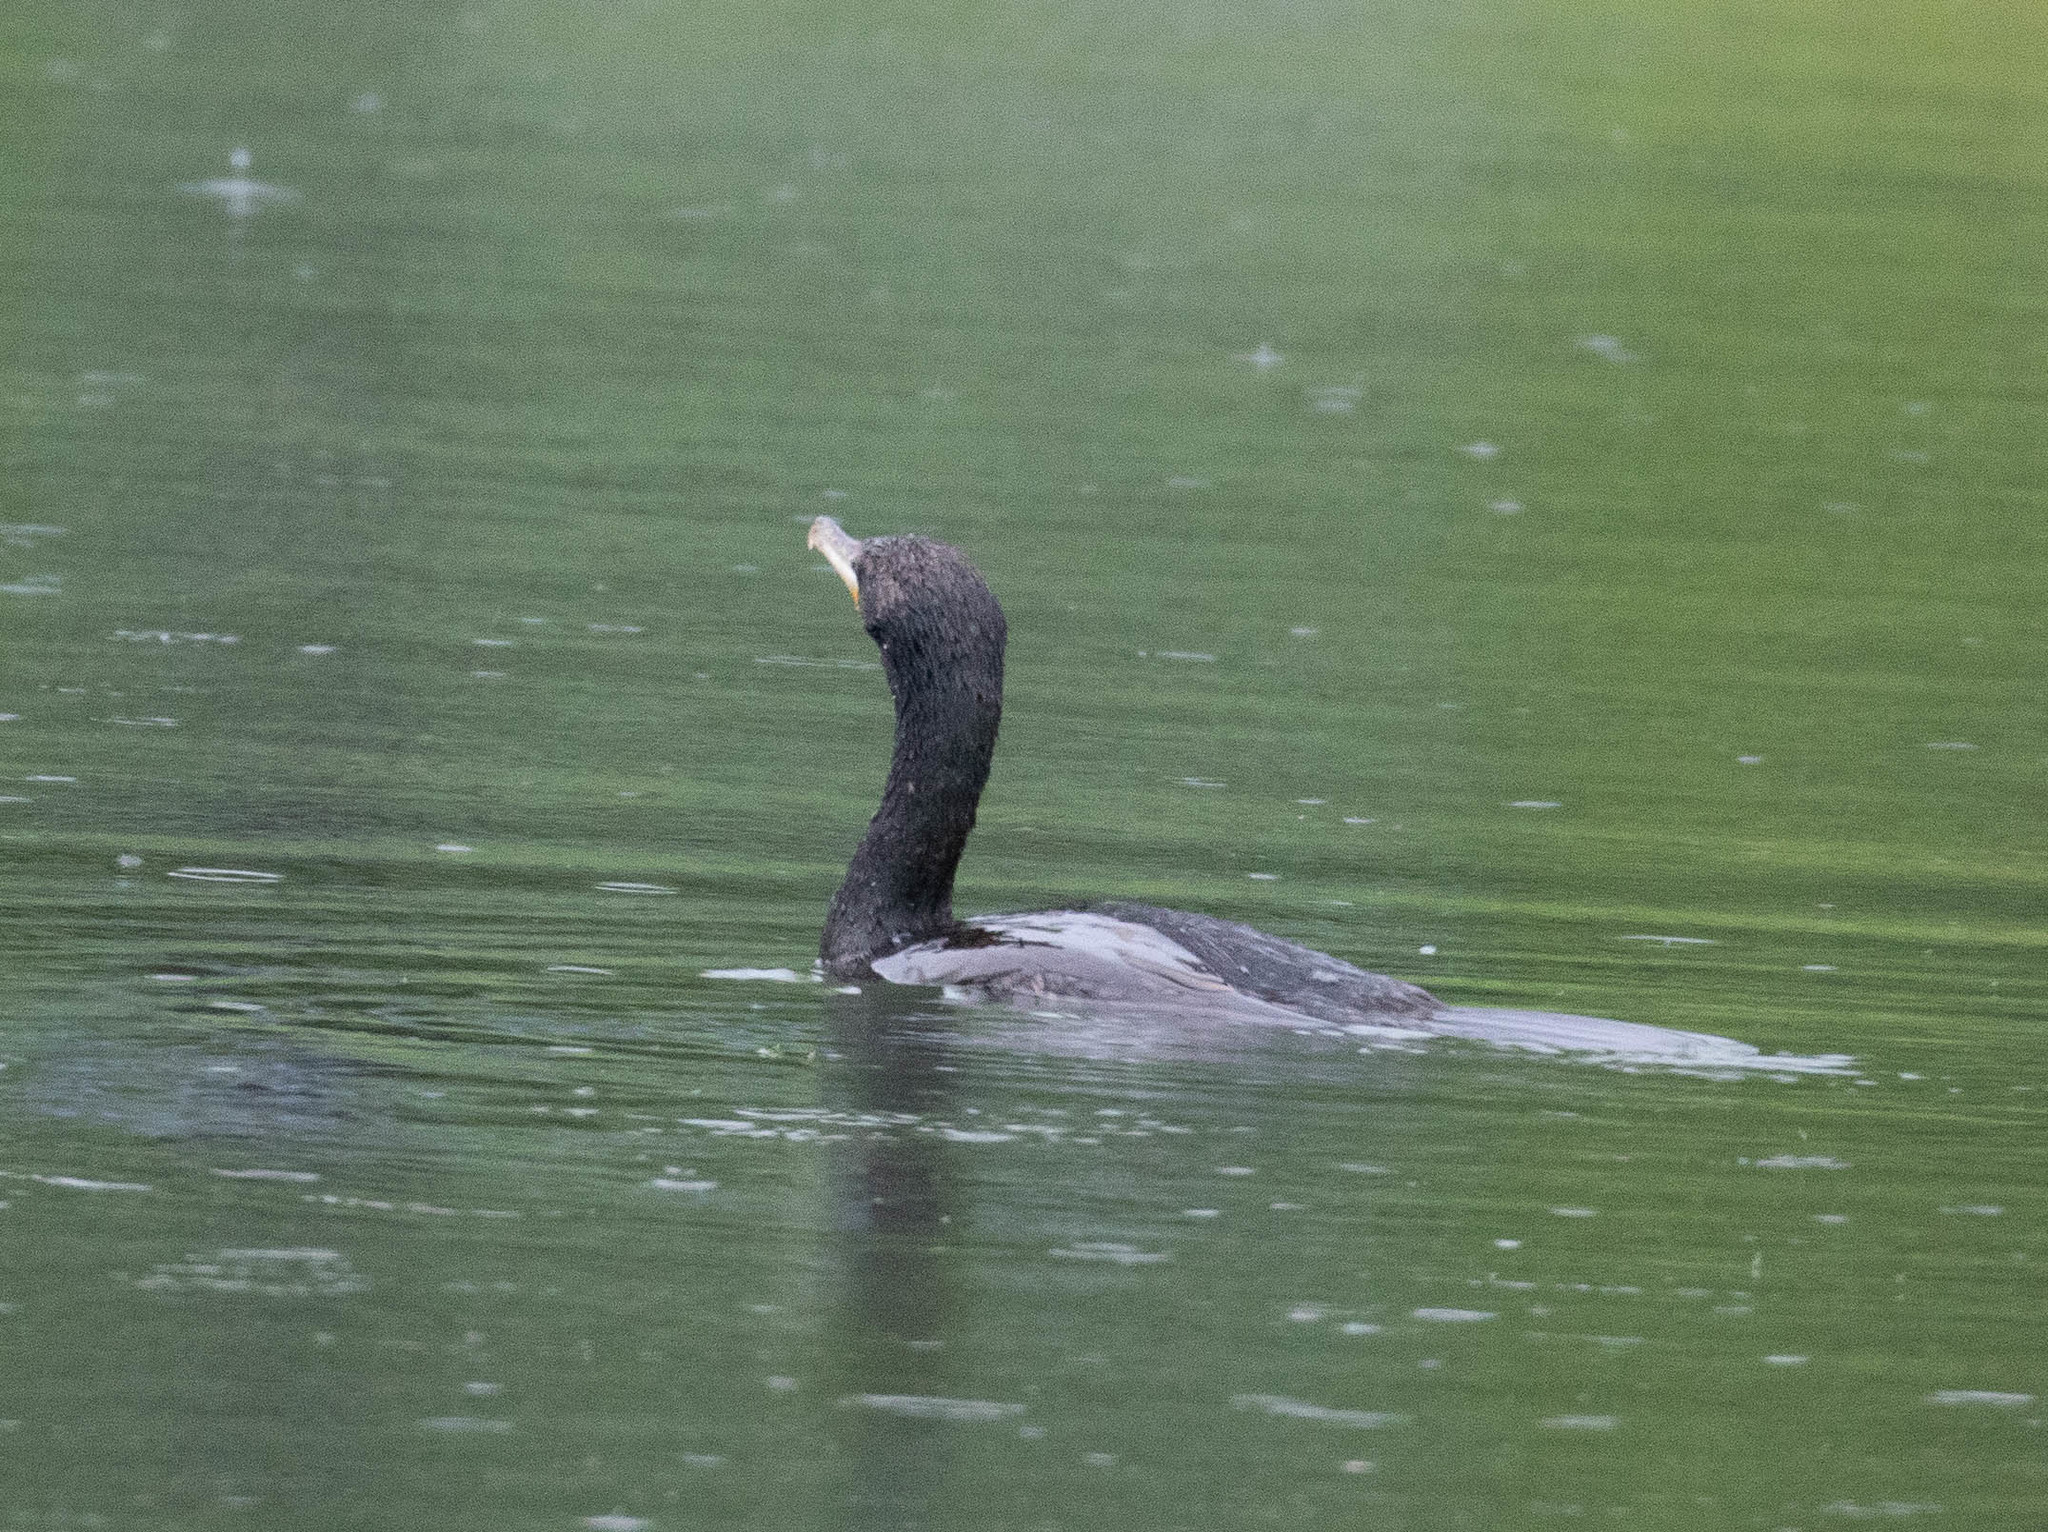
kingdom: Animalia
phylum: Chordata
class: Aves
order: Suliformes
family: Phalacrocoracidae
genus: Phalacrocorax
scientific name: Phalacrocorax auritus
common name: Double-crested cormorant
